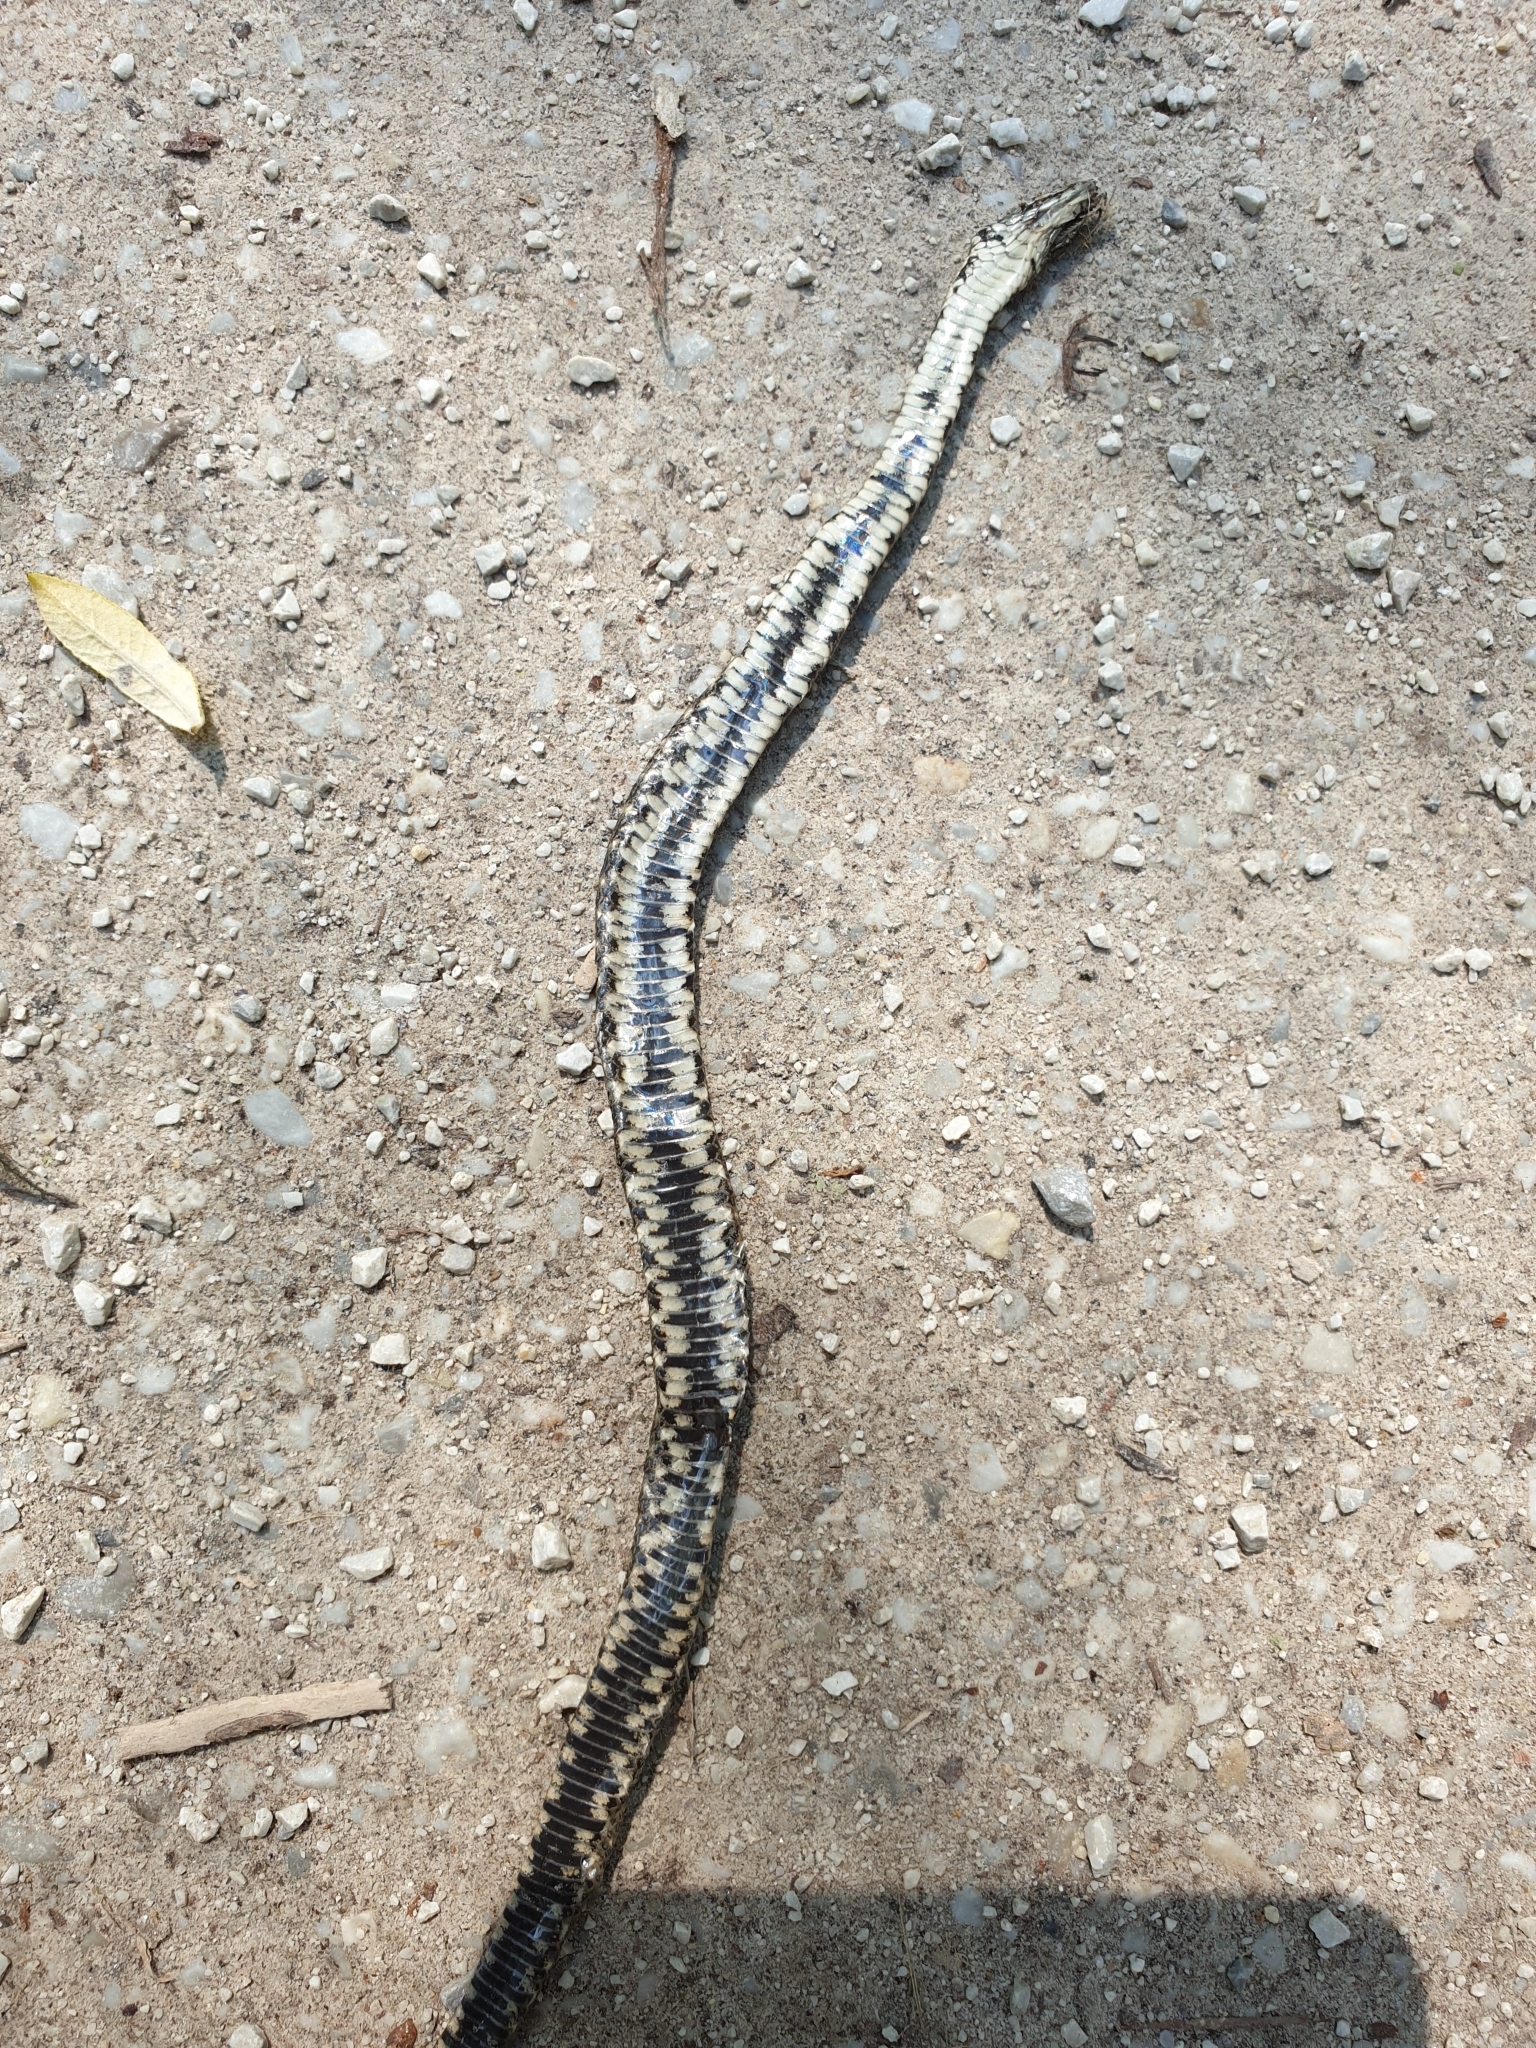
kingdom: Animalia
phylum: Chordata
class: Squamata
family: Colubridae
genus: Natrix
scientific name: Natrix tessellata
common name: Dice snake
